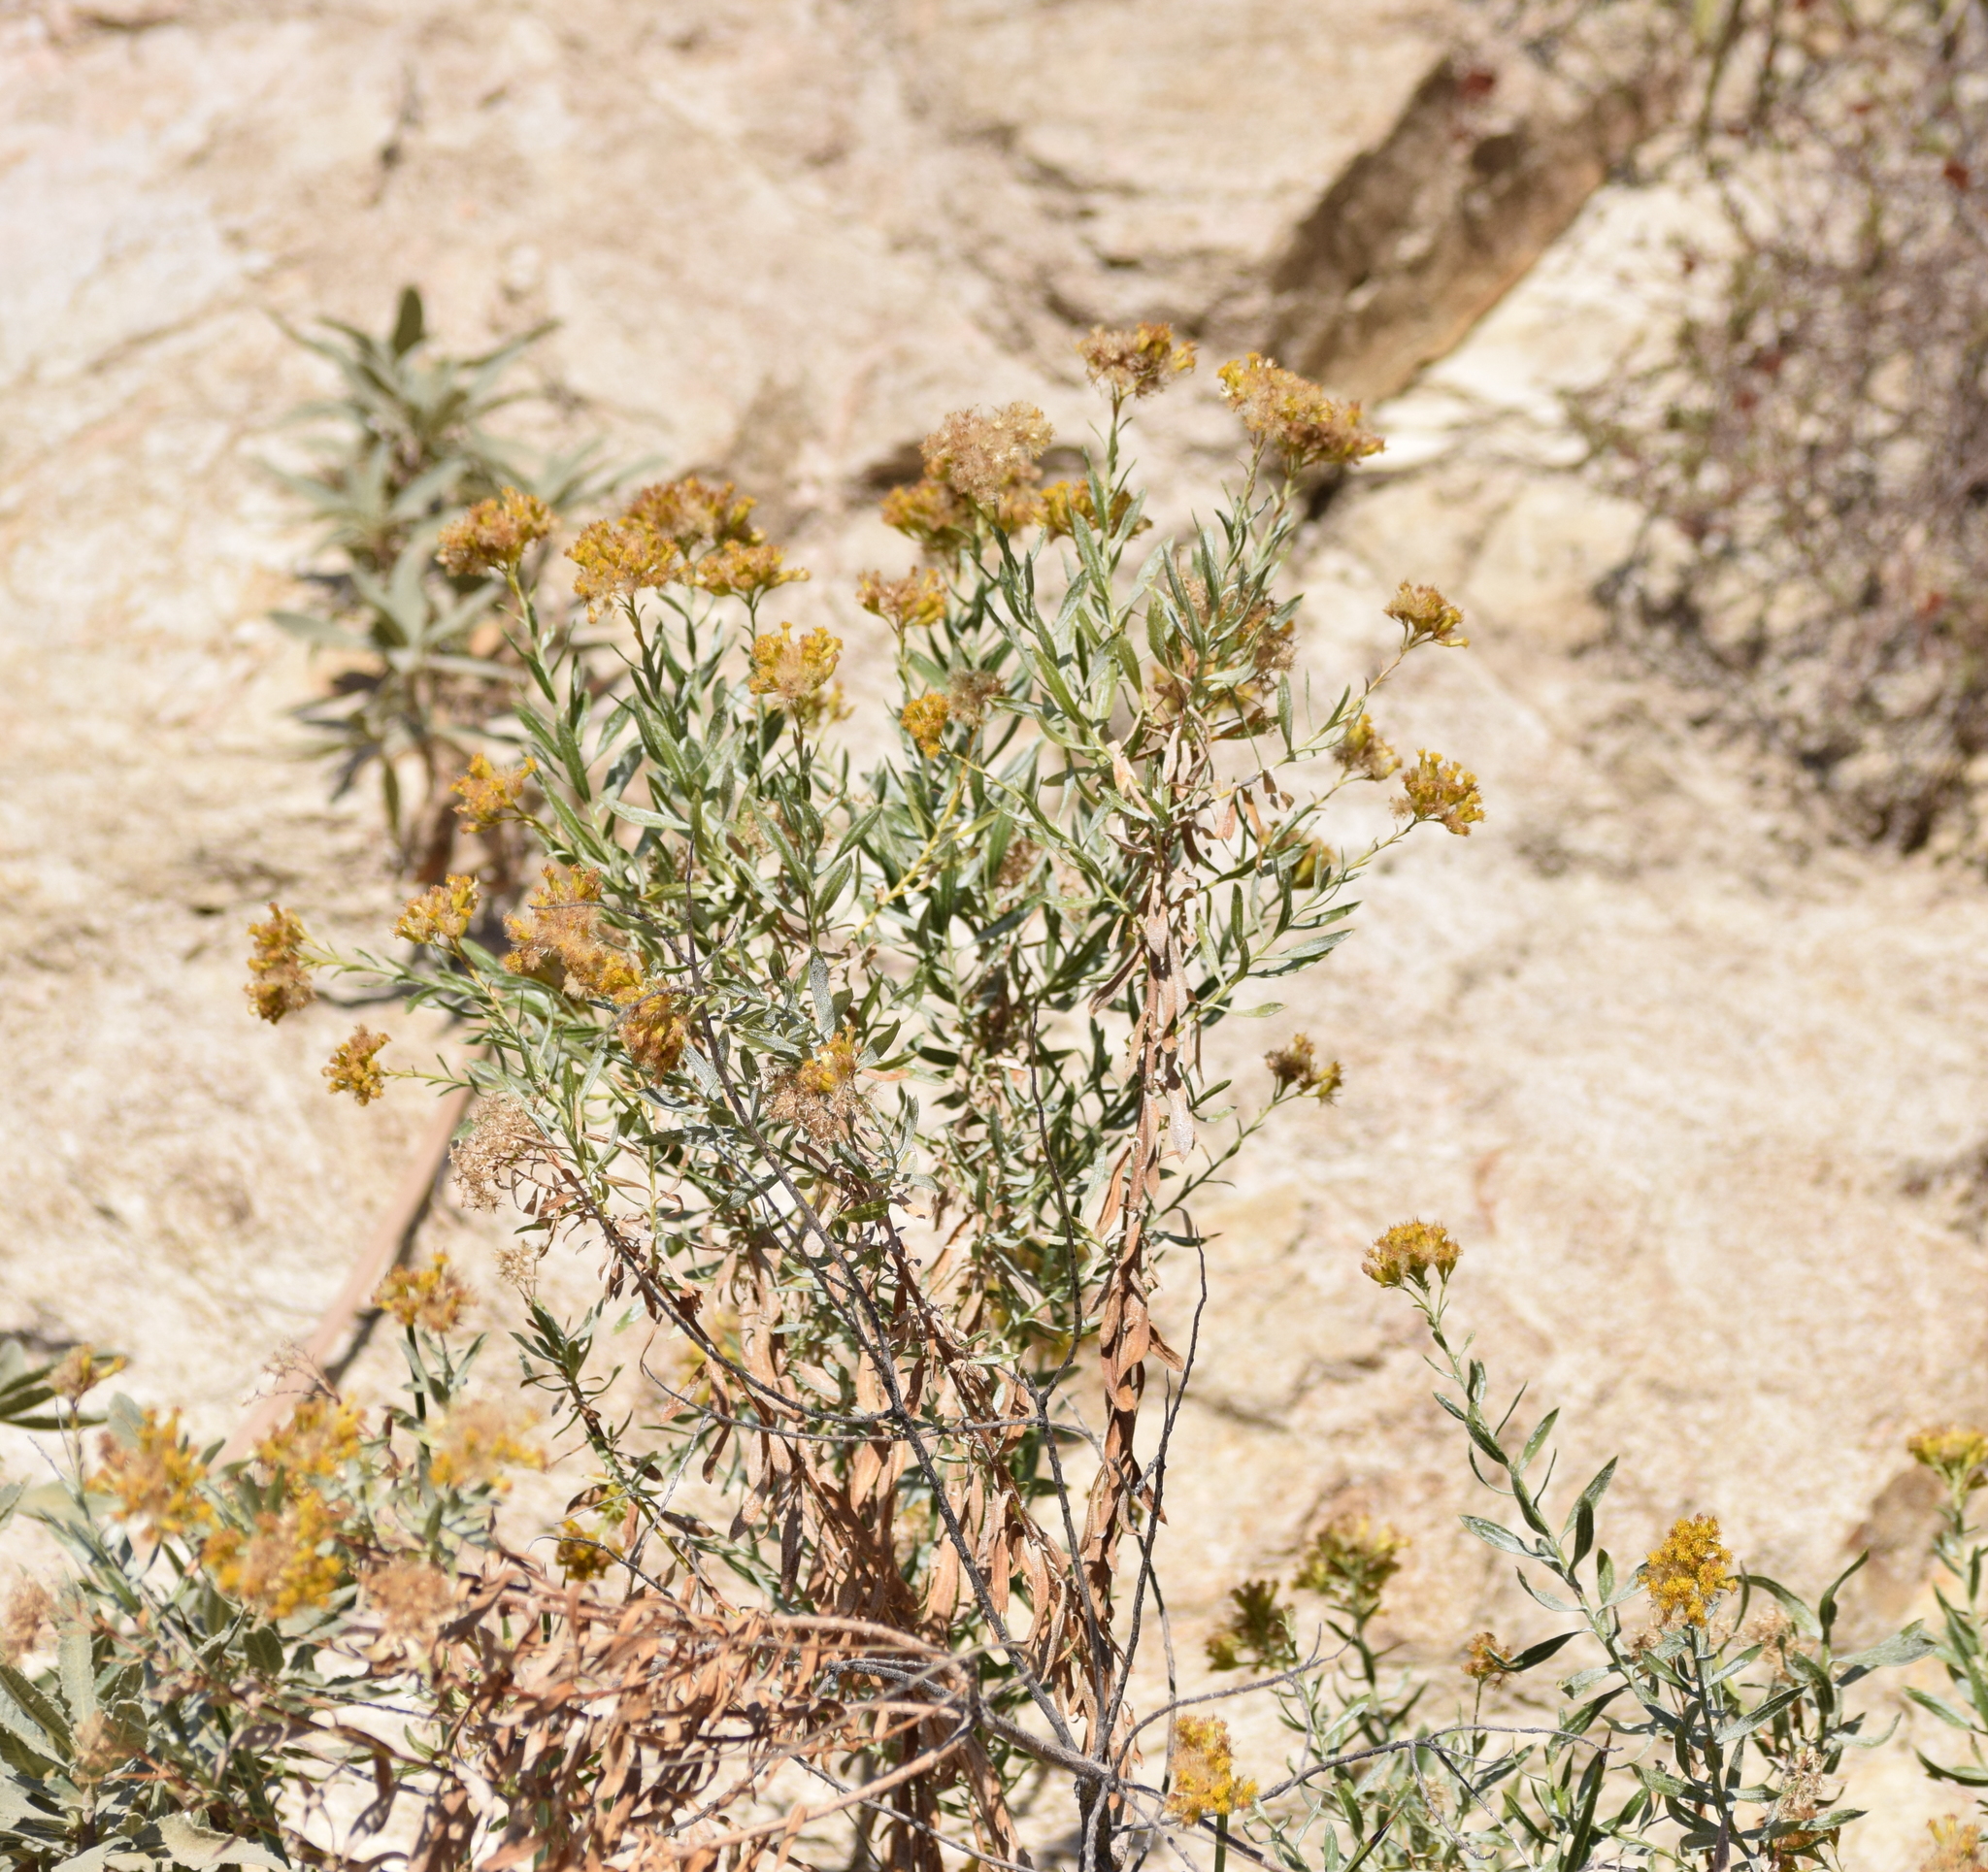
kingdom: Plantae
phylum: Tracheophyta
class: Magnoliopsida
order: Asterales
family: Asteraceae
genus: Ericameria
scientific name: Ericameria parishii
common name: Parish's goldenbush
